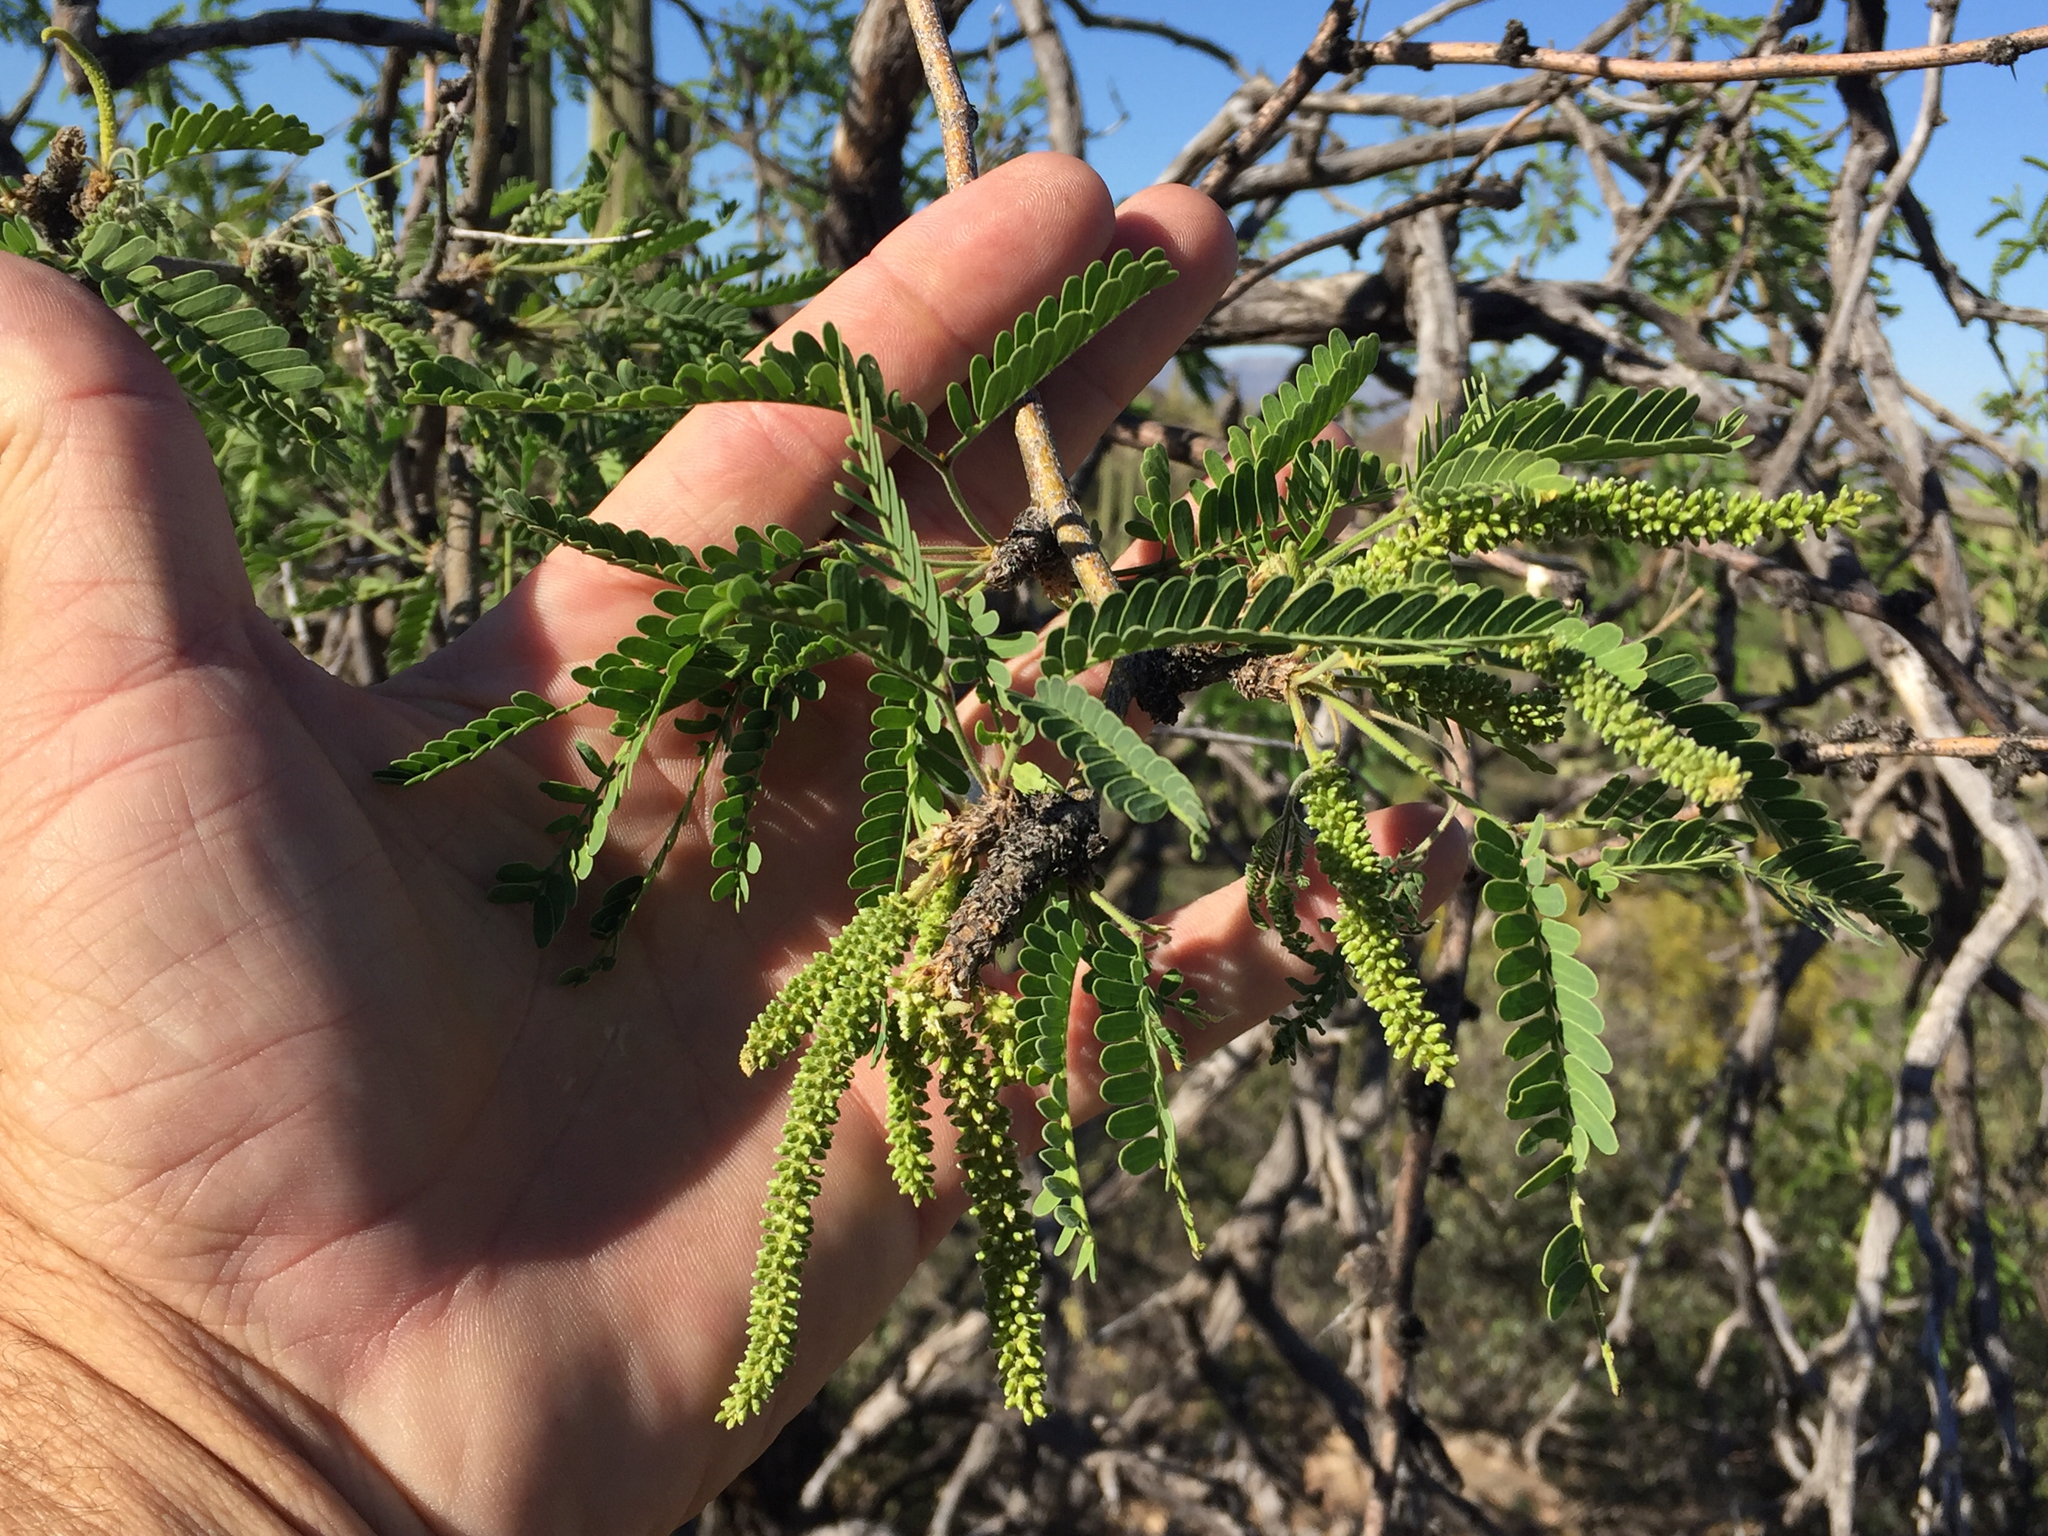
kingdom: Plantae
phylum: Tracheophyta
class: Magnoliopsida
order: Fabales
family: Fabaceae
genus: Prosopis
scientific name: Prosopis velutina
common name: Velvet mesquite
